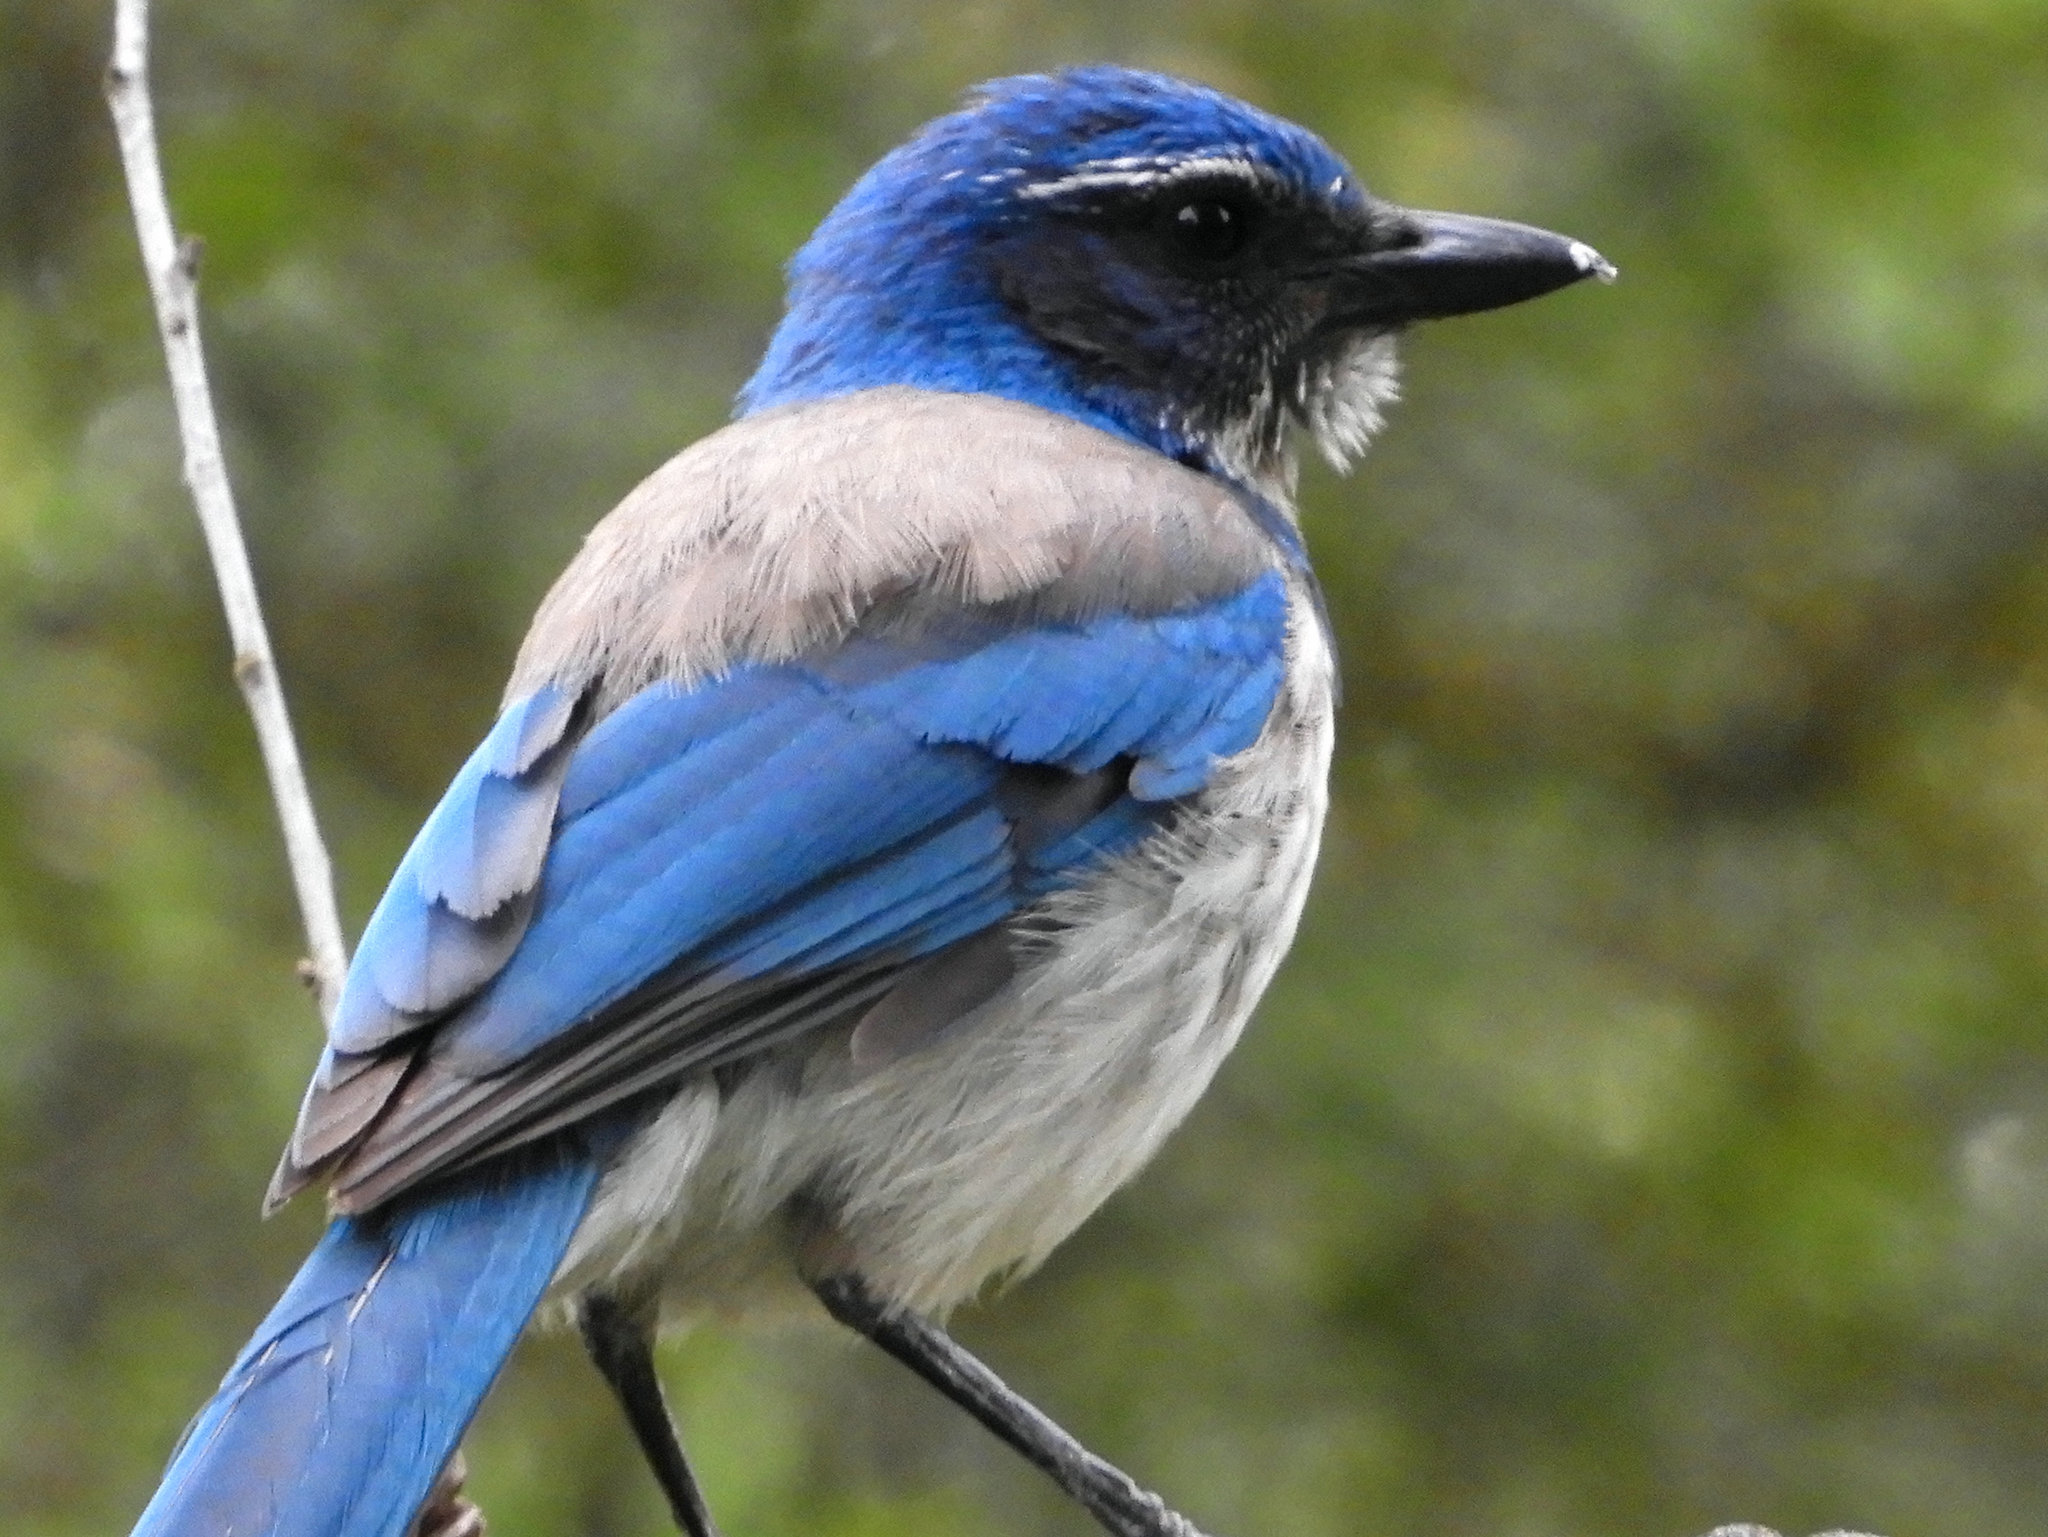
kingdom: Animalia
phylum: Chordata
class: Aves
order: Passeriformes
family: Corvidae
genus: Aphelocoma
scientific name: Aphelocoma californica
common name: California scrub-jay
